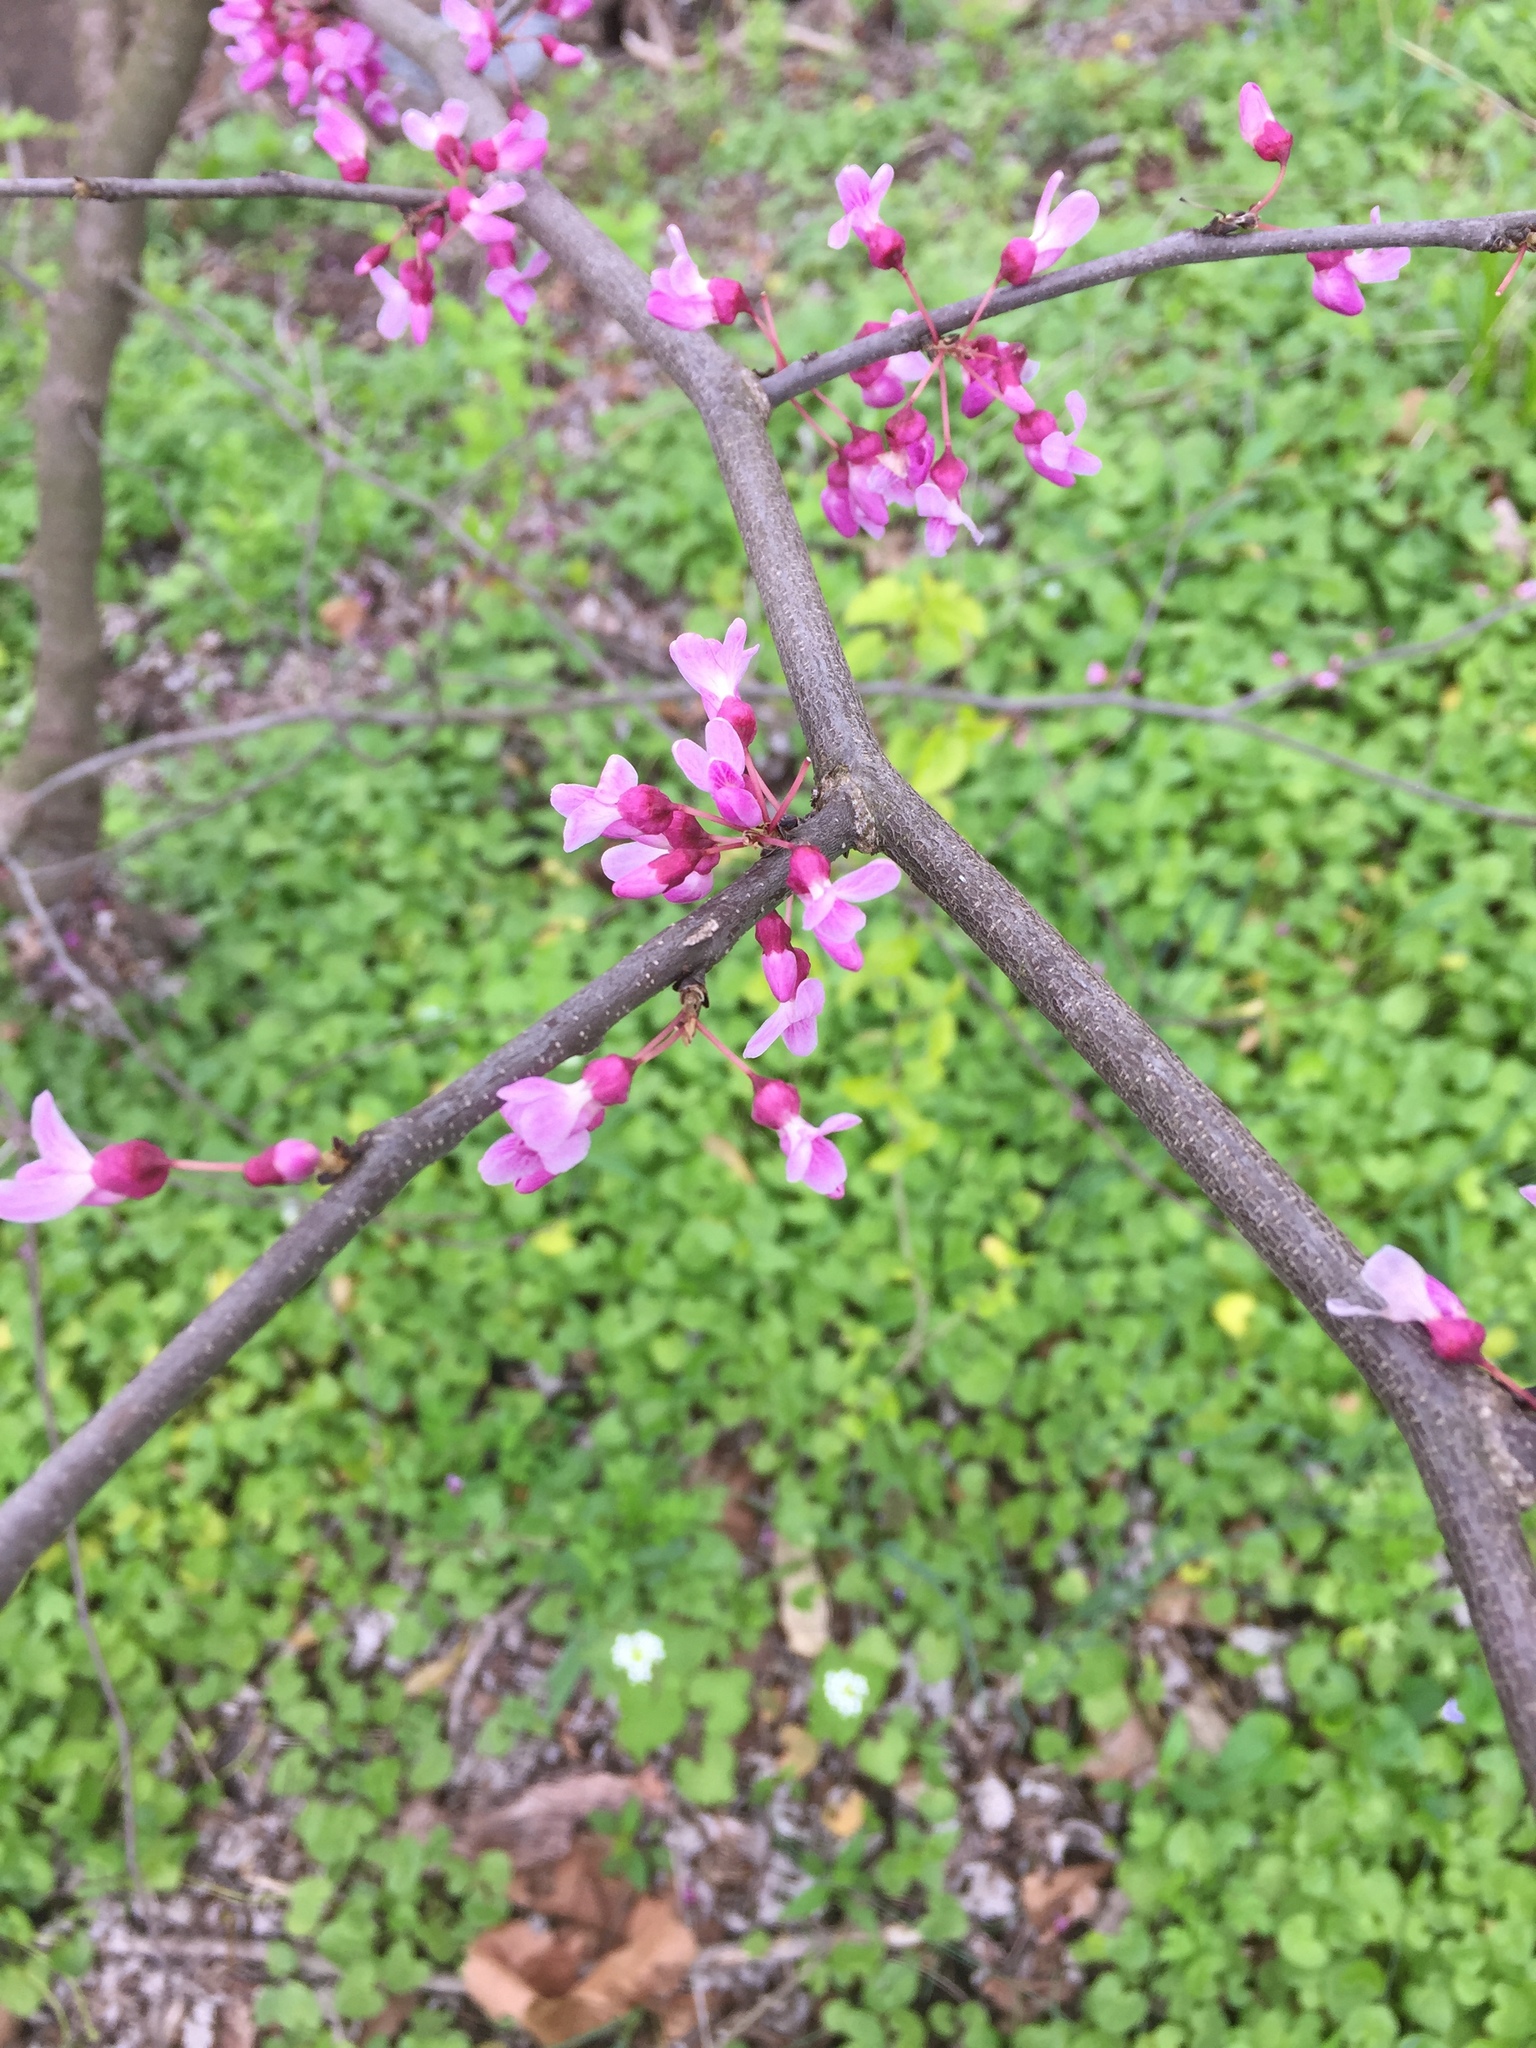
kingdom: Plantae
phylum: Tracheophyta
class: Magnoliopsida
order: Fabales
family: Fabaceae
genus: Cercis
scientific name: Cercis canadensis
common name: Eastern redbud
